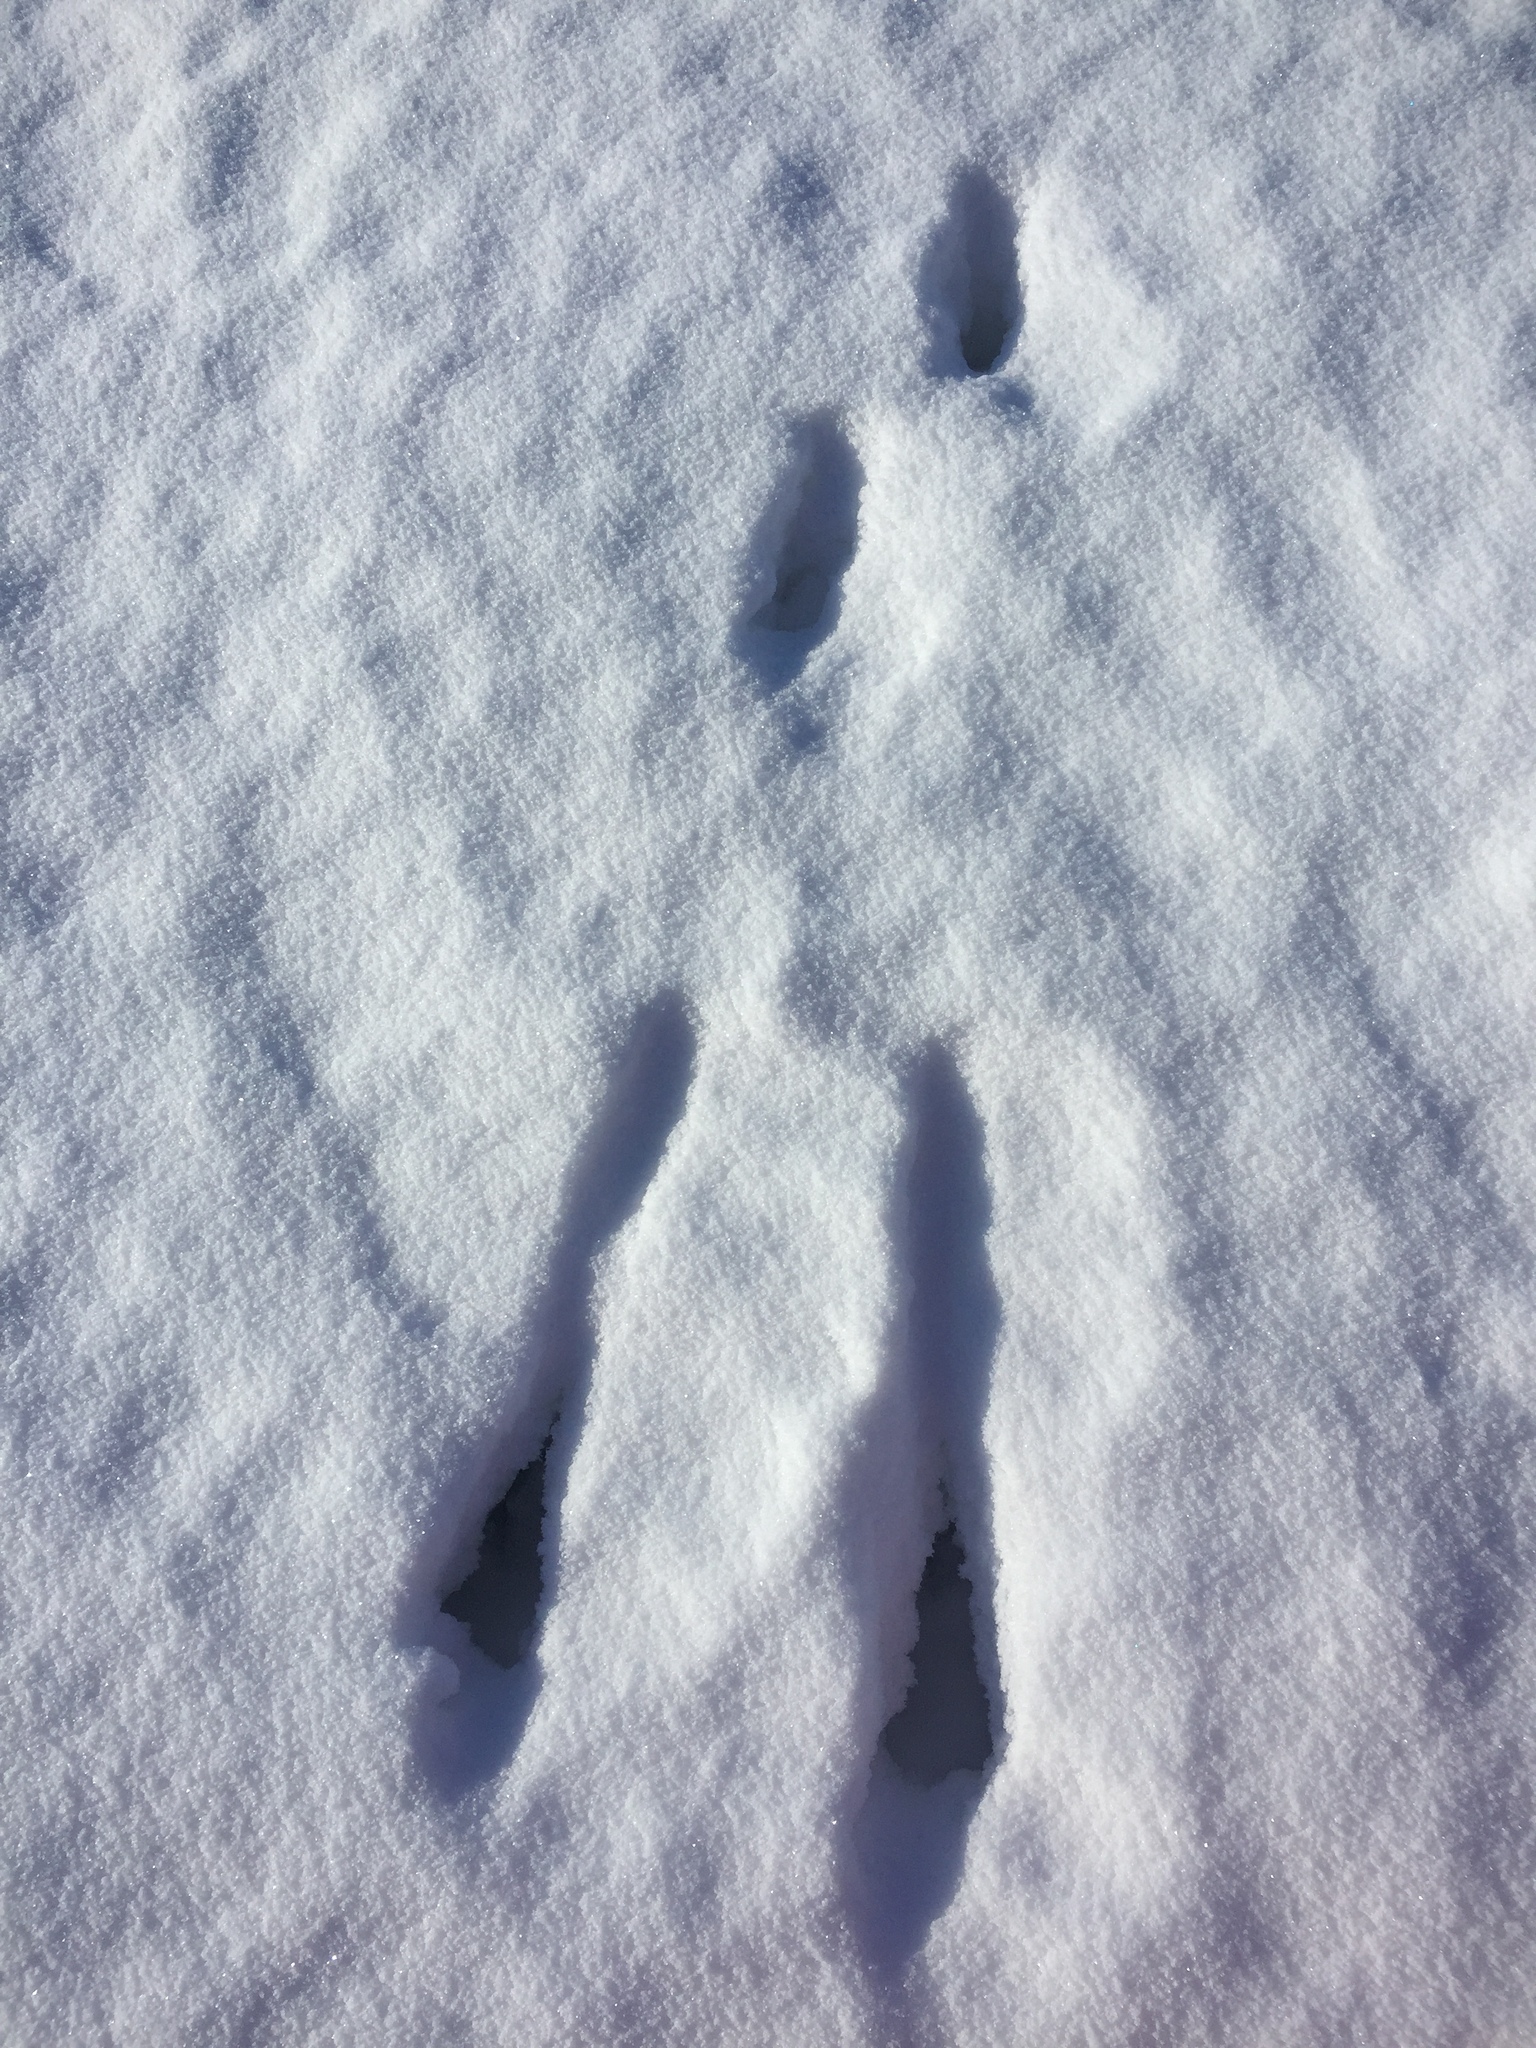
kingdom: Animalia
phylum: Chordata
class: Mammalia
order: Lagomorpha
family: Leporidae
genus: Lepus
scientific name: Lepus europaeus
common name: European hare
